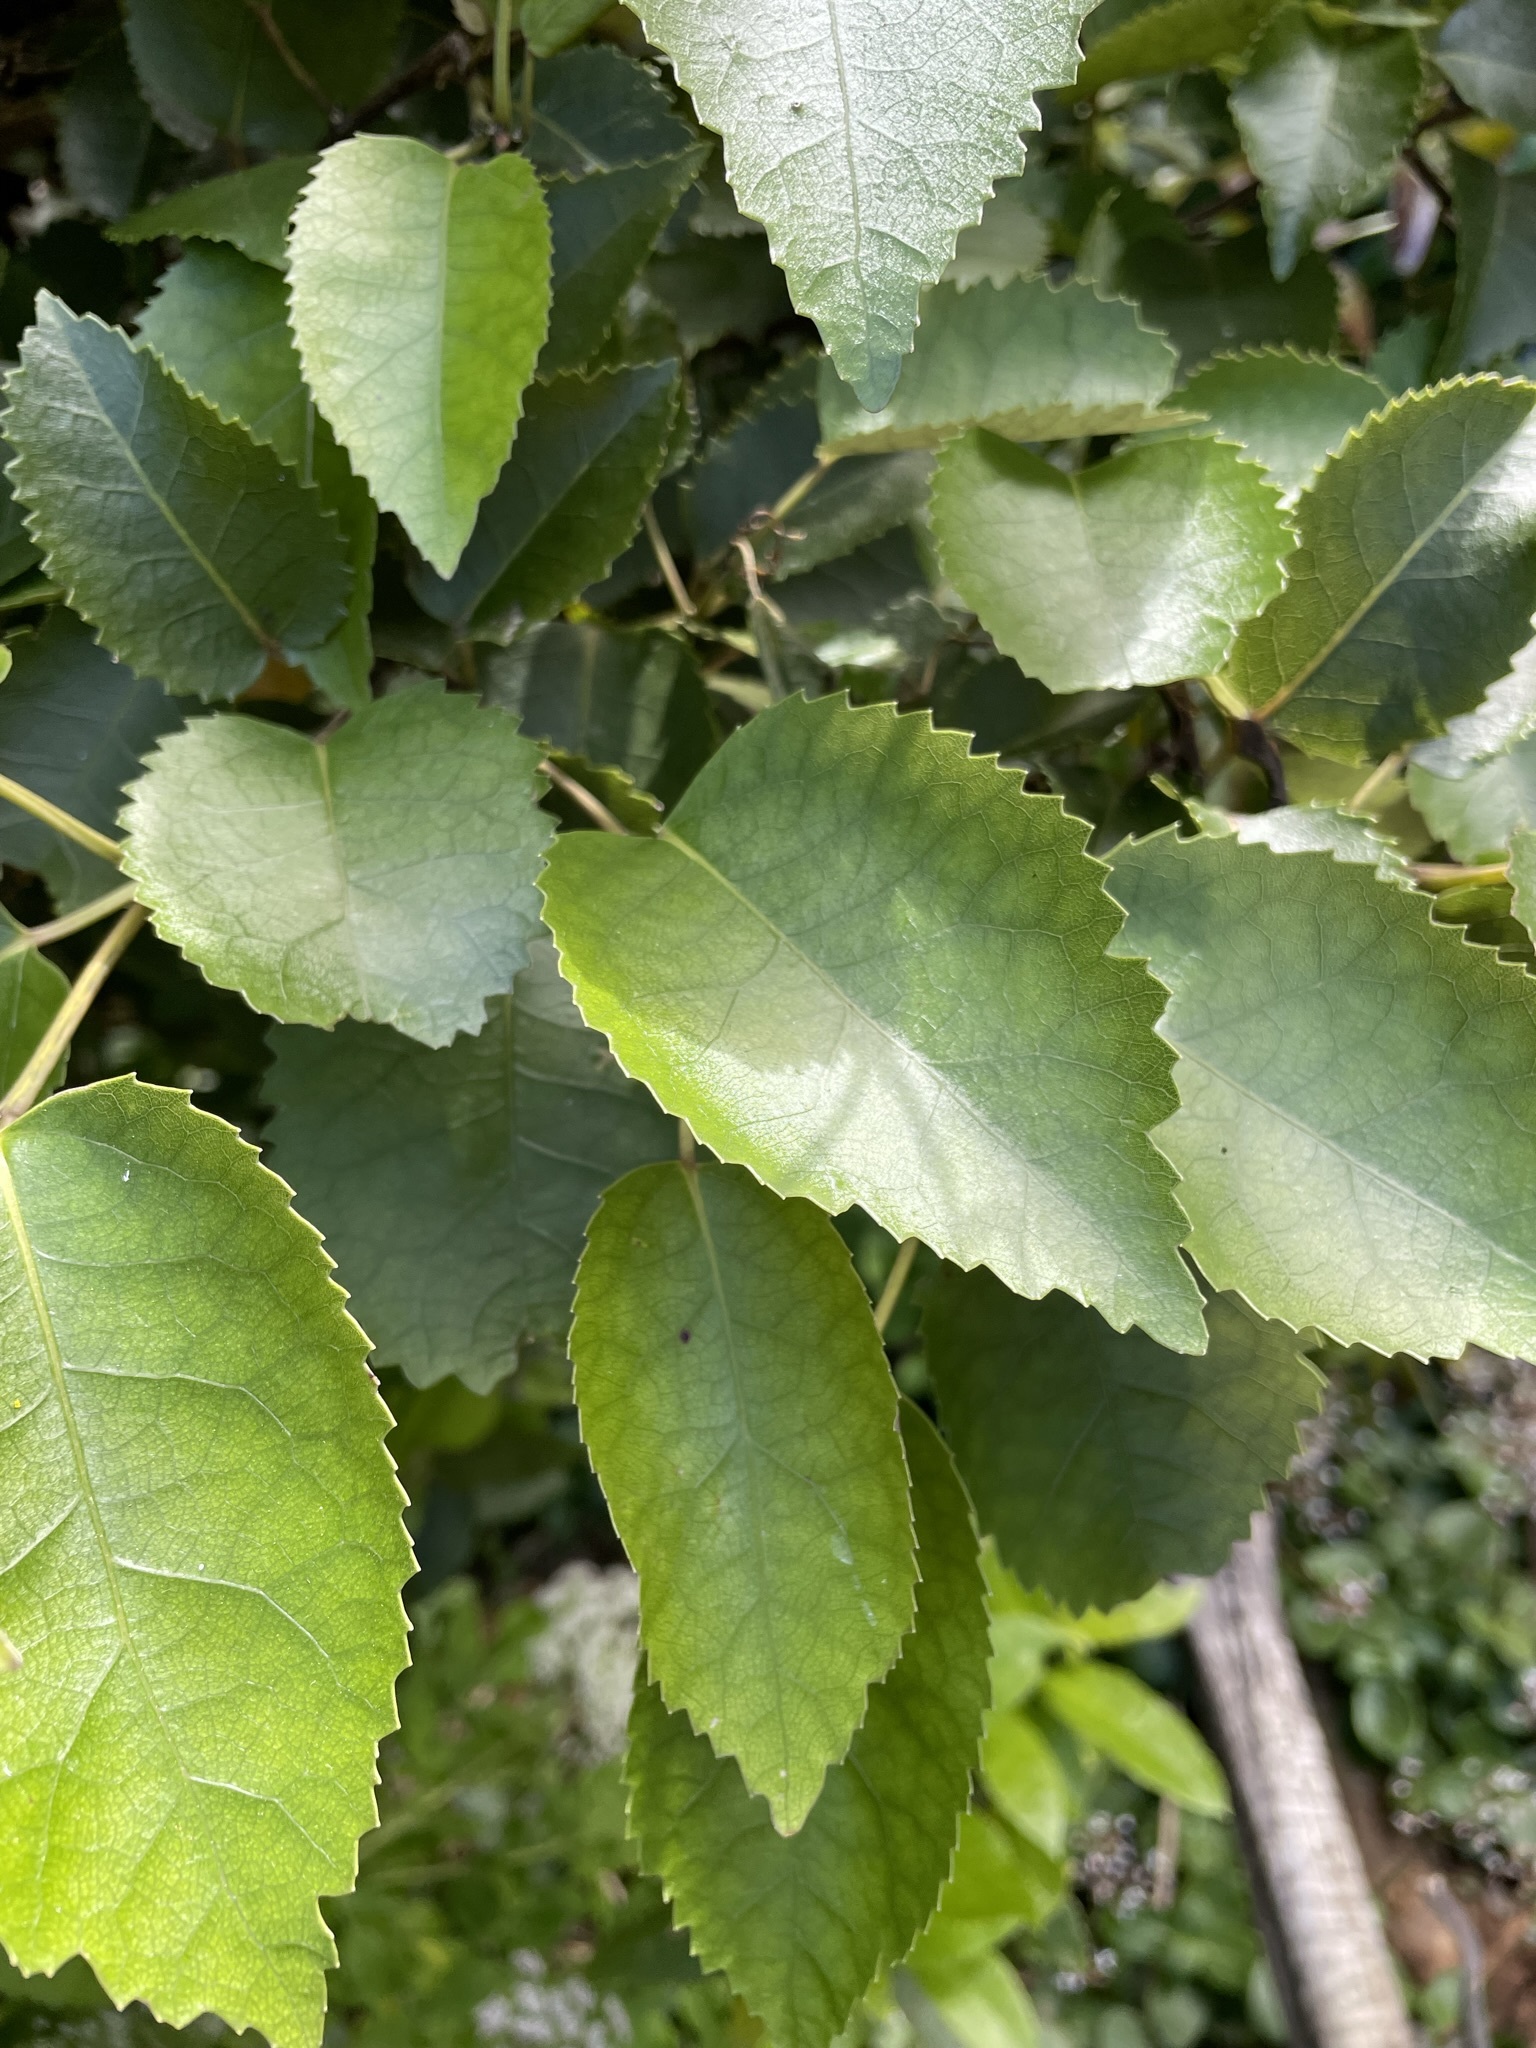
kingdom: Plantae
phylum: Tracheophyta
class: Magnoliopsida
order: Malvales
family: Malvaceae
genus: Hoheria
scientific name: Hoheria populnea
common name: Lacebark
